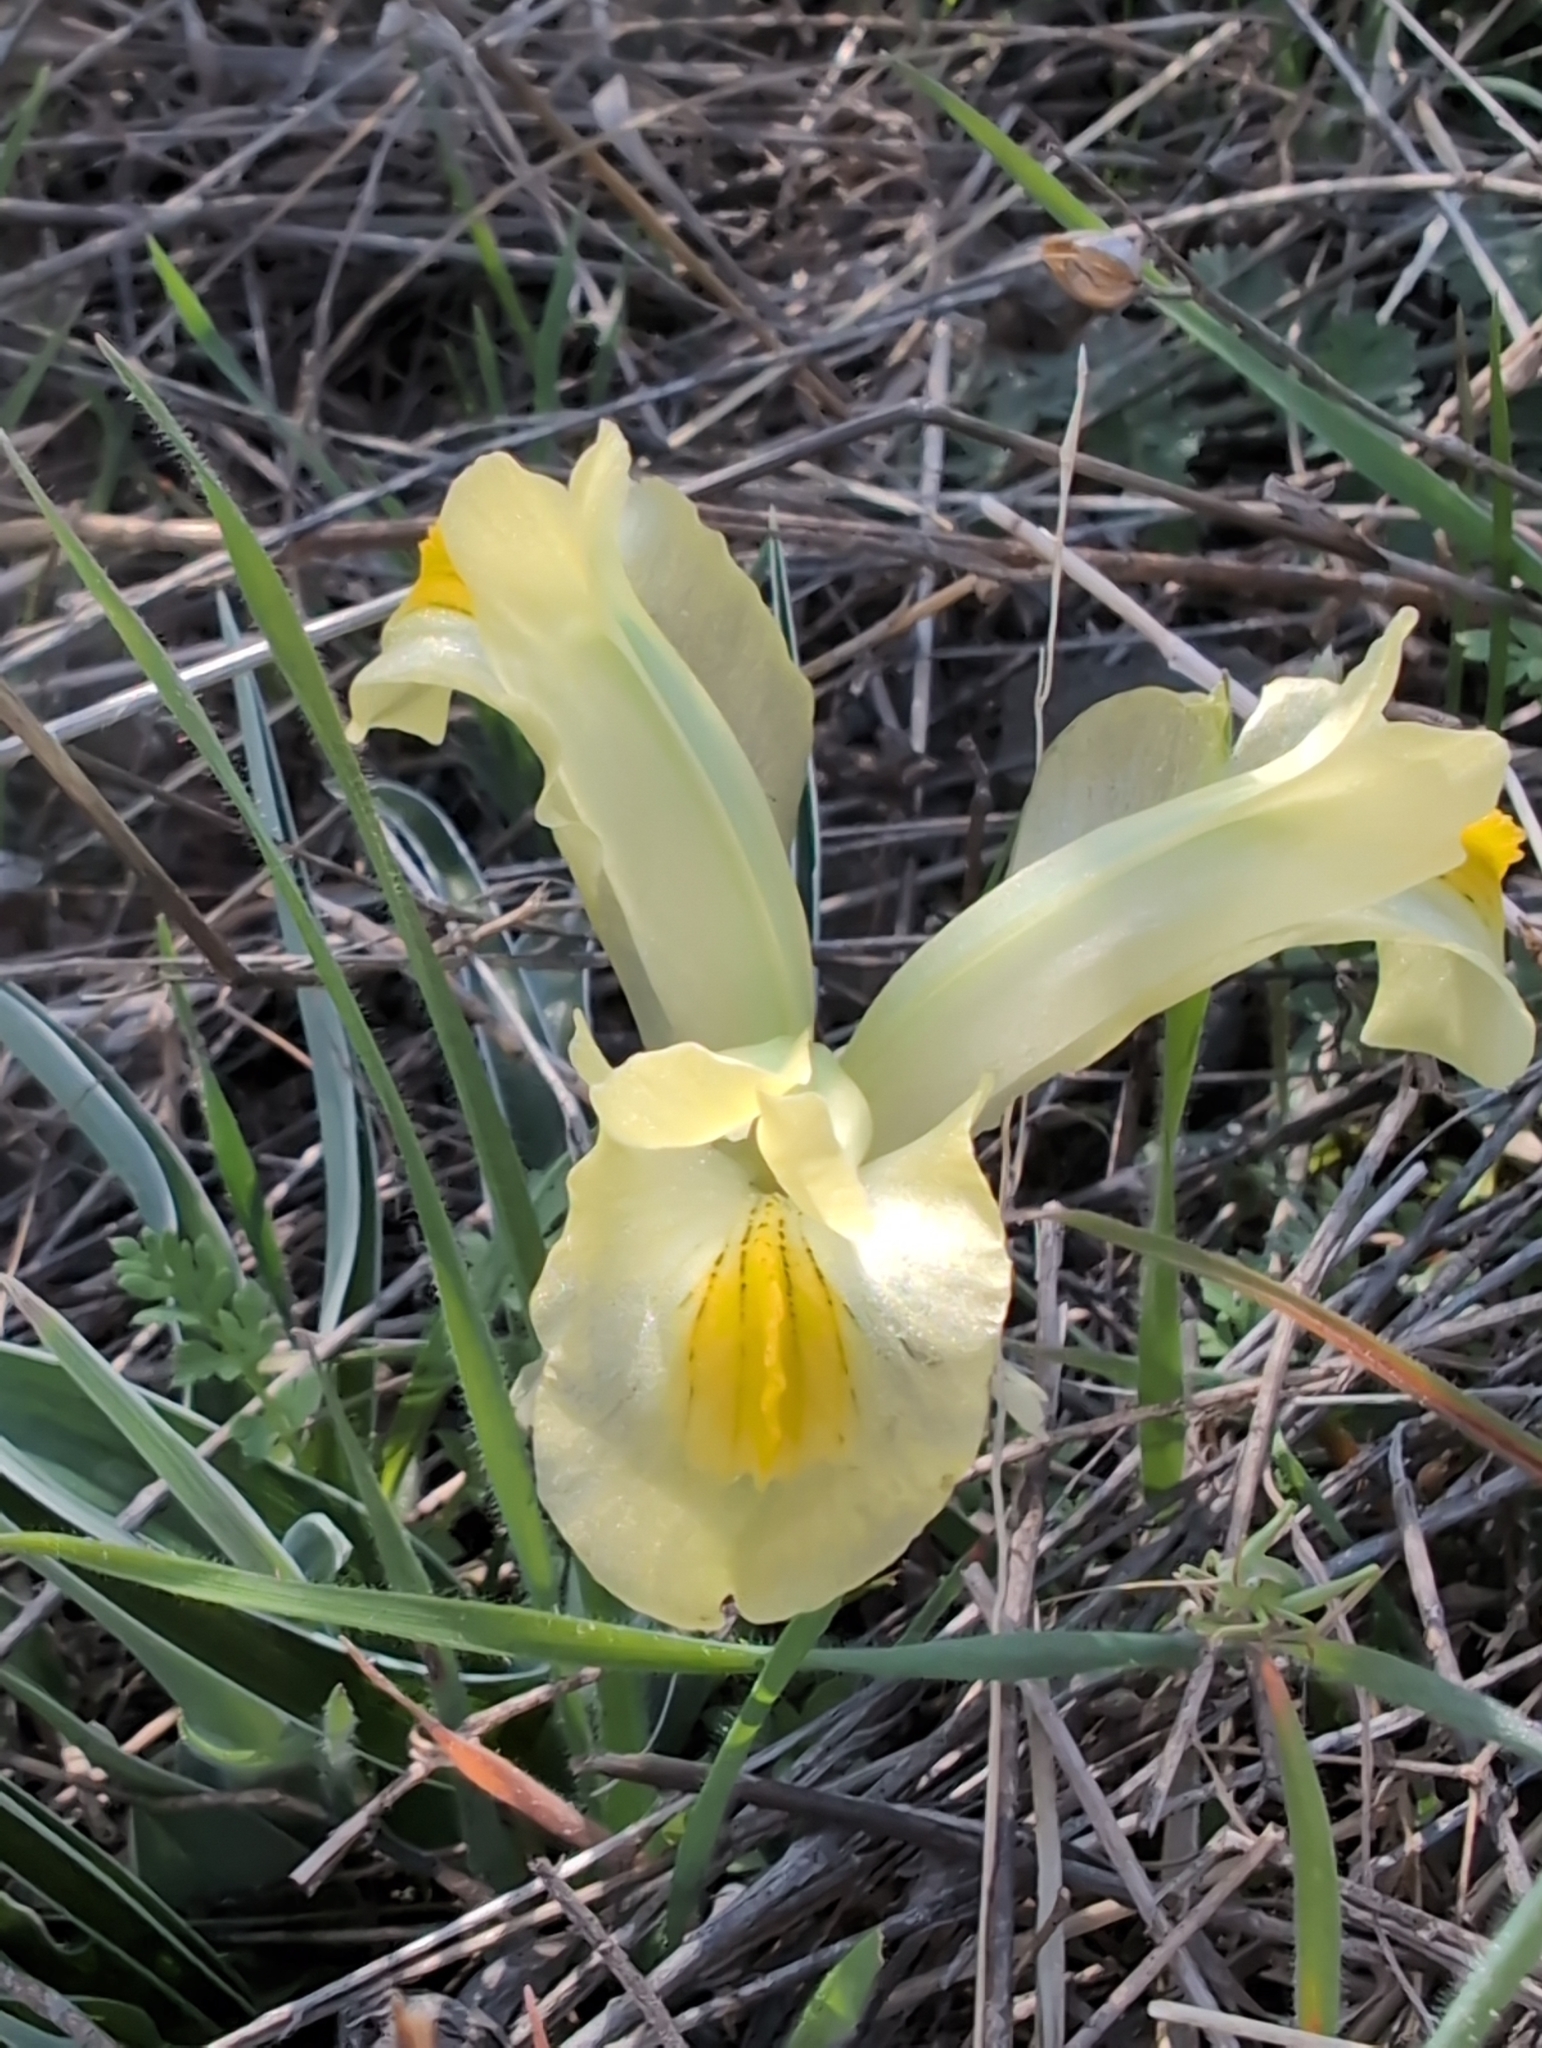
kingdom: Plantae
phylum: Tracheophyta
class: Liliopsida
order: Asparagales
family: Iridaceae
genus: Iris
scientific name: Iris caucasica
